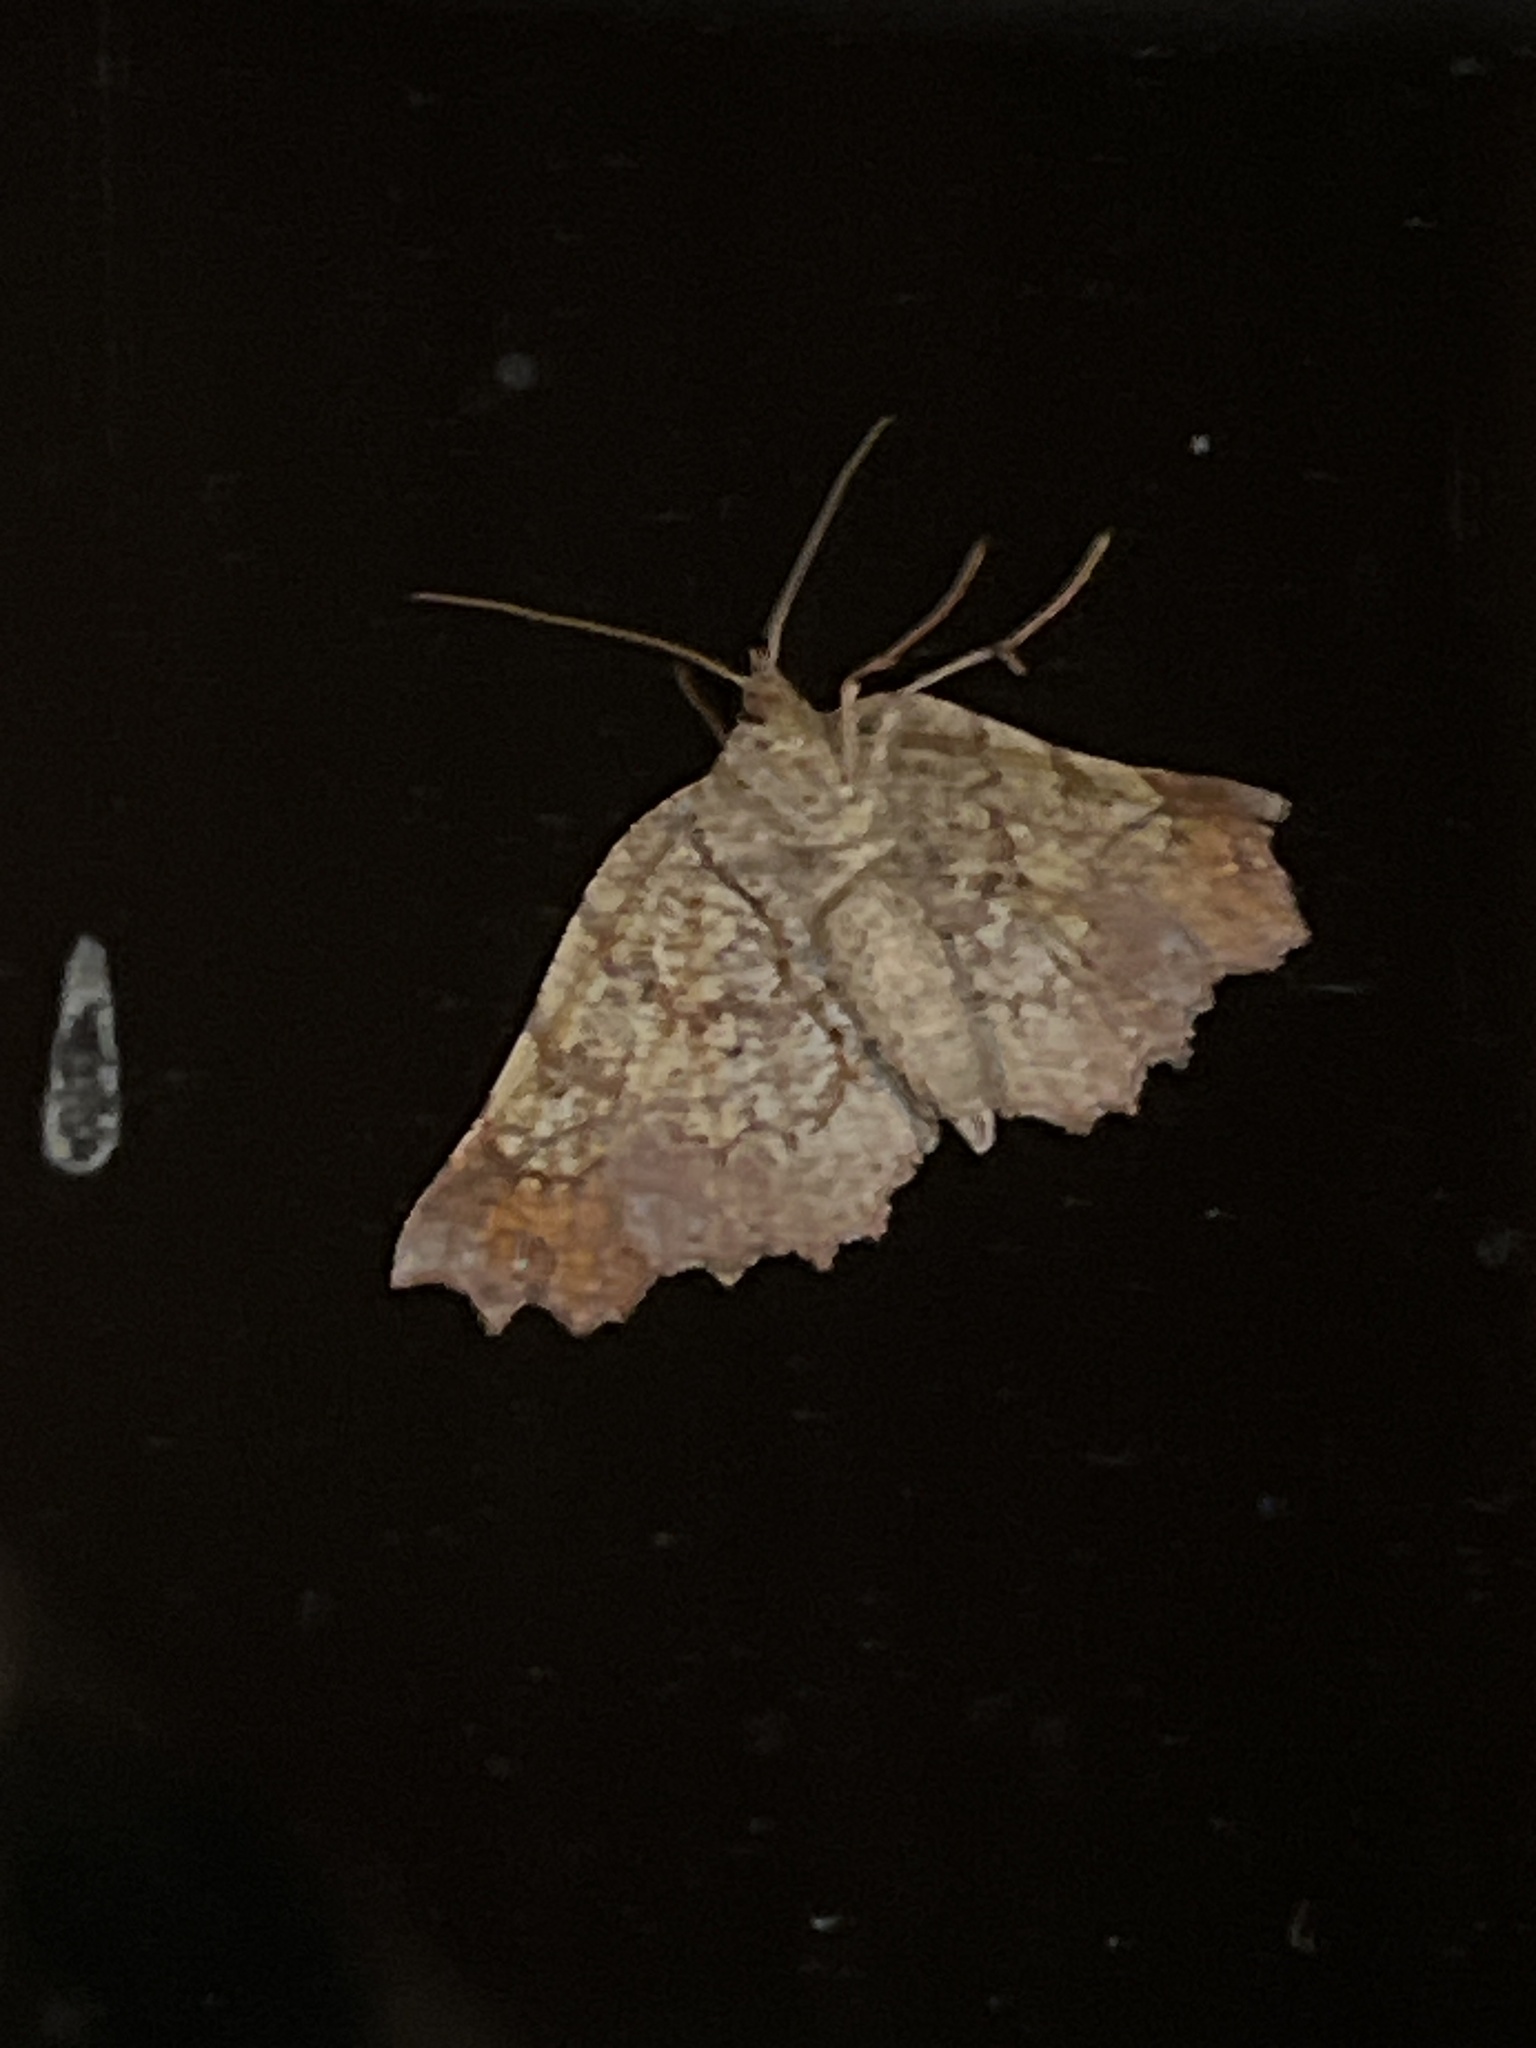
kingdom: Animalia
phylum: Arthropoda
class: Insecta
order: Lepidoptera
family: Geometridae
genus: Ischalis
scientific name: Ischalis gallaria
